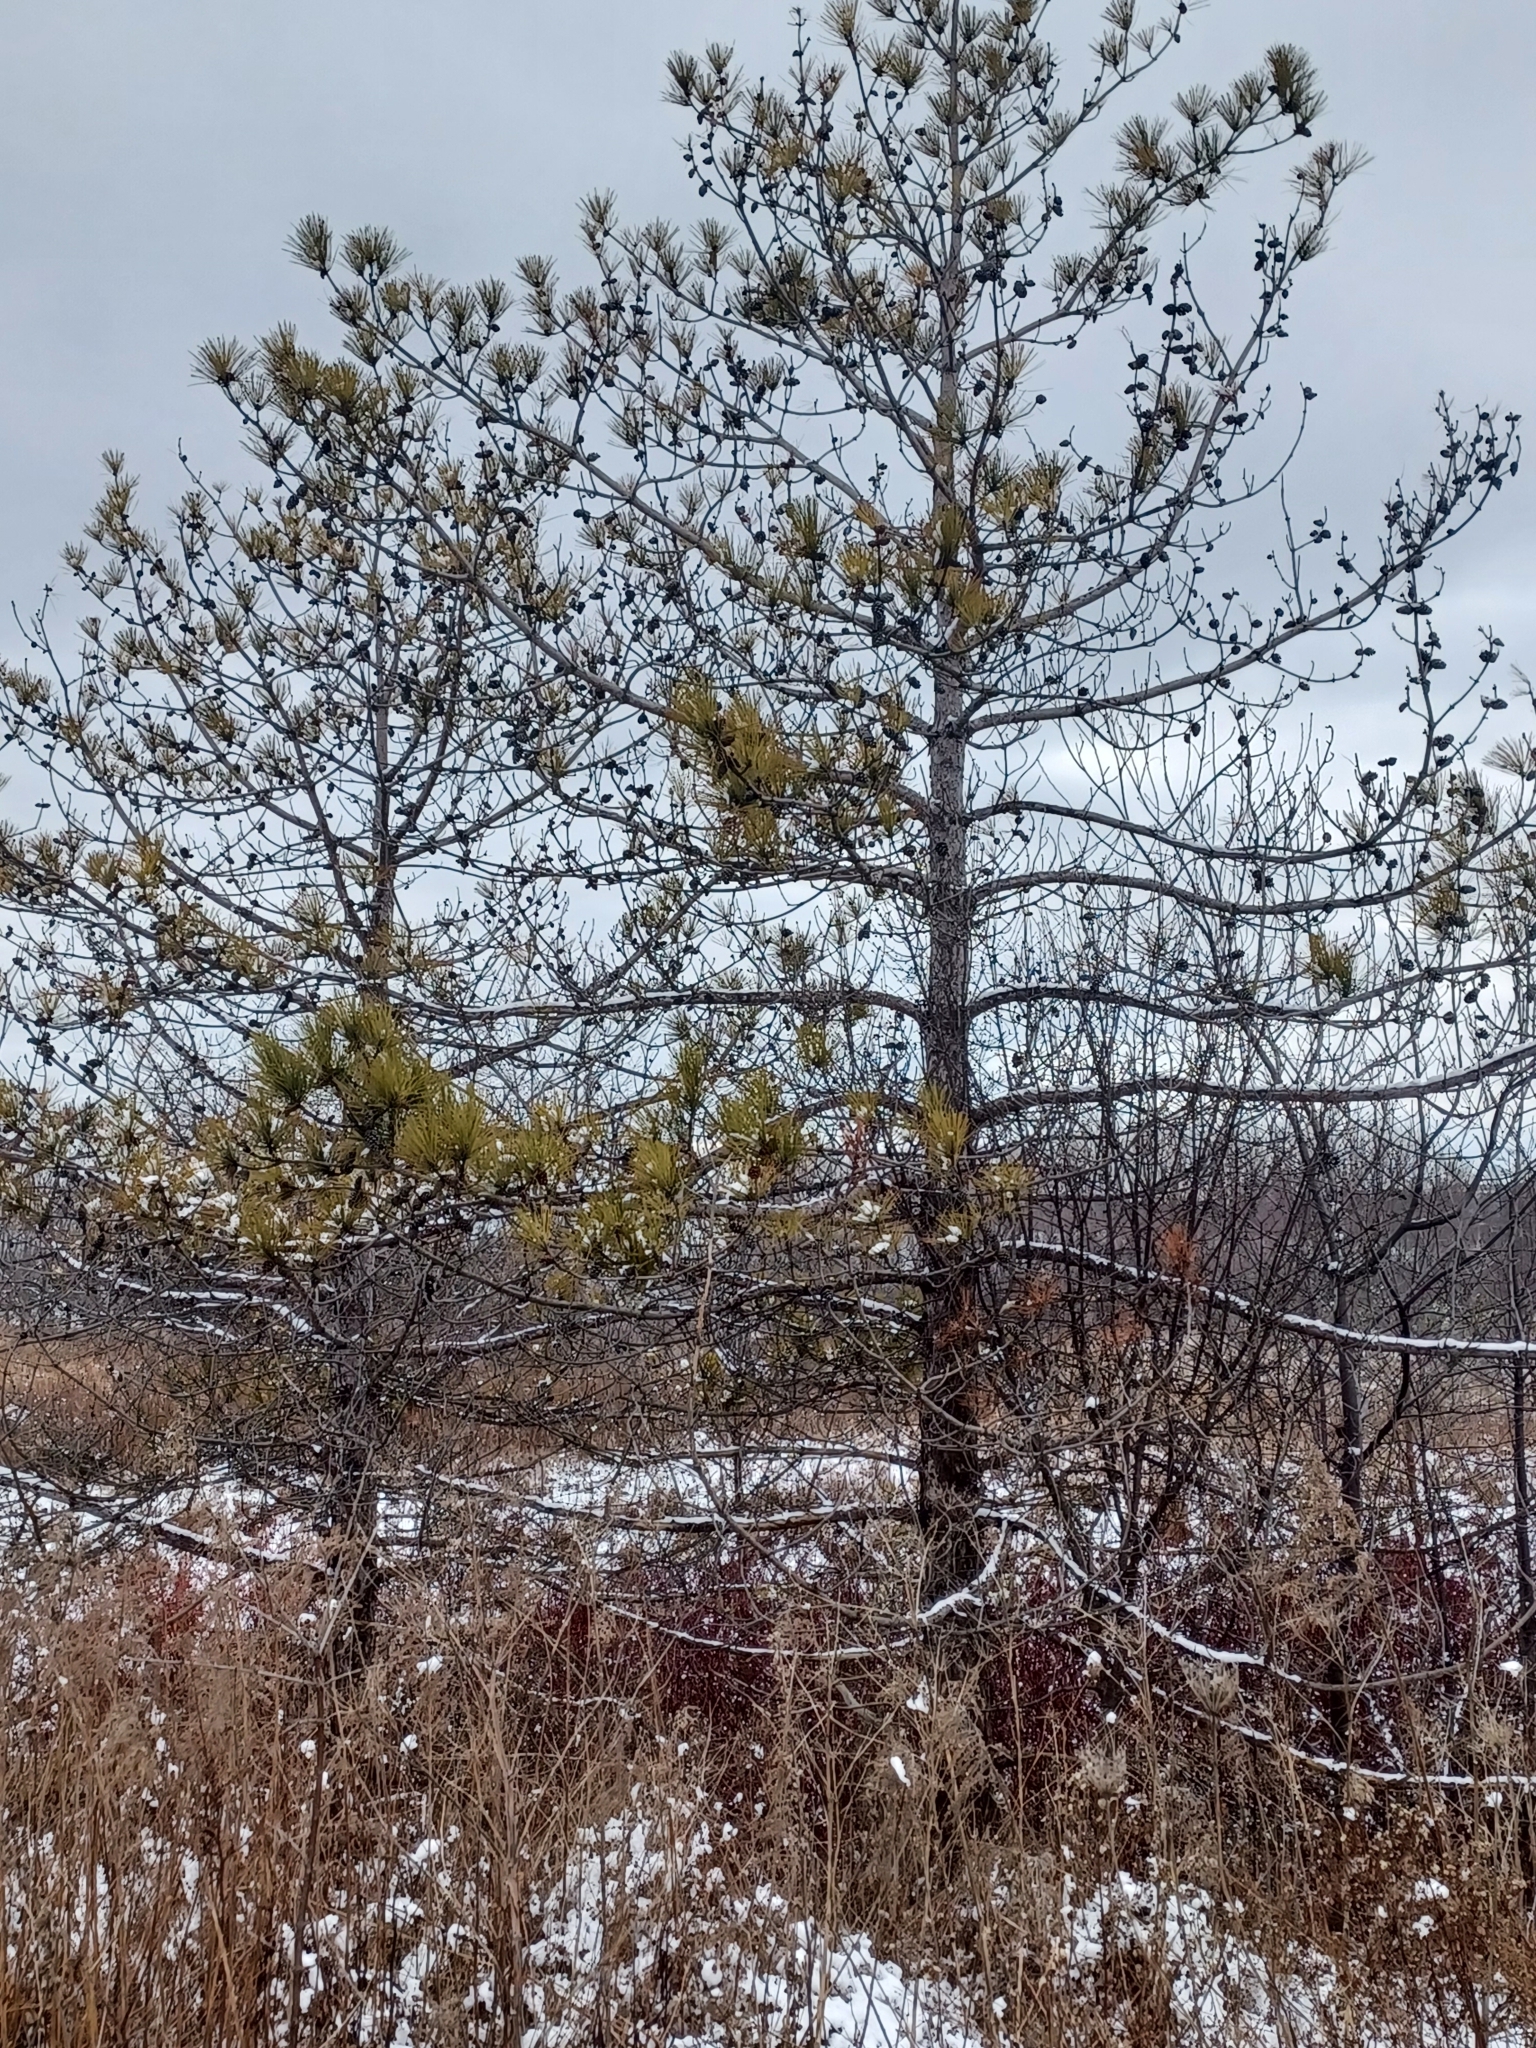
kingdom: Plantae
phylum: Tracheophyta
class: Pinopsida
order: Pinales
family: Pinaceae
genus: Pinus
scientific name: Pinus resinosa
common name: Norway pine
